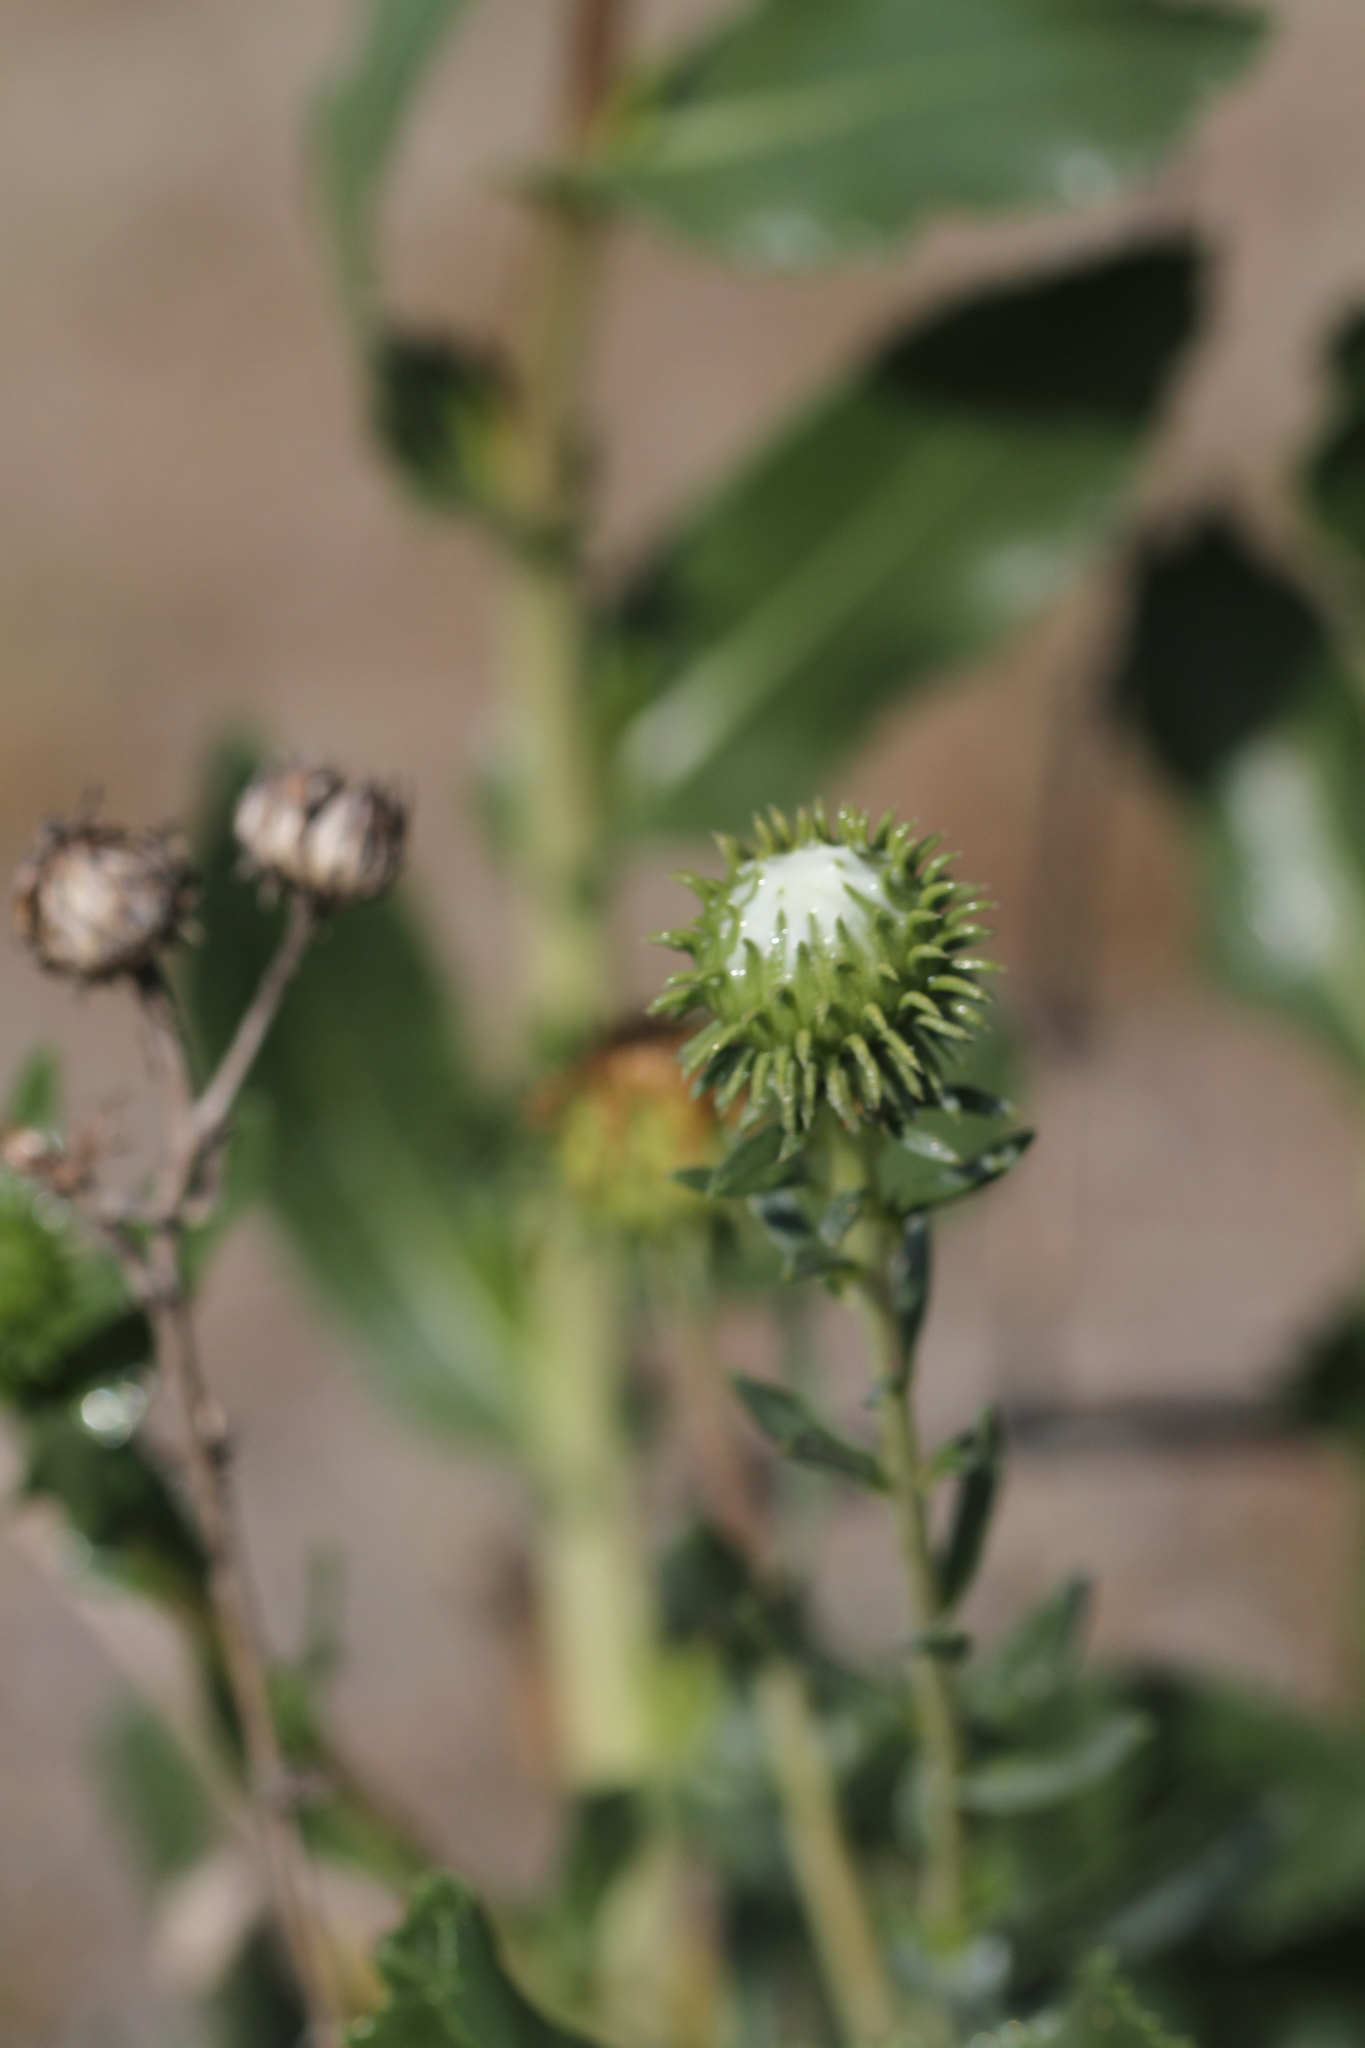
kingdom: Plantae
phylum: Tracheophyta
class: Magnoliopsida
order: Asterales
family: Asteraceae
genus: Grindelia
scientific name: Grindelia hirsutula
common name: Hairy gumweed
